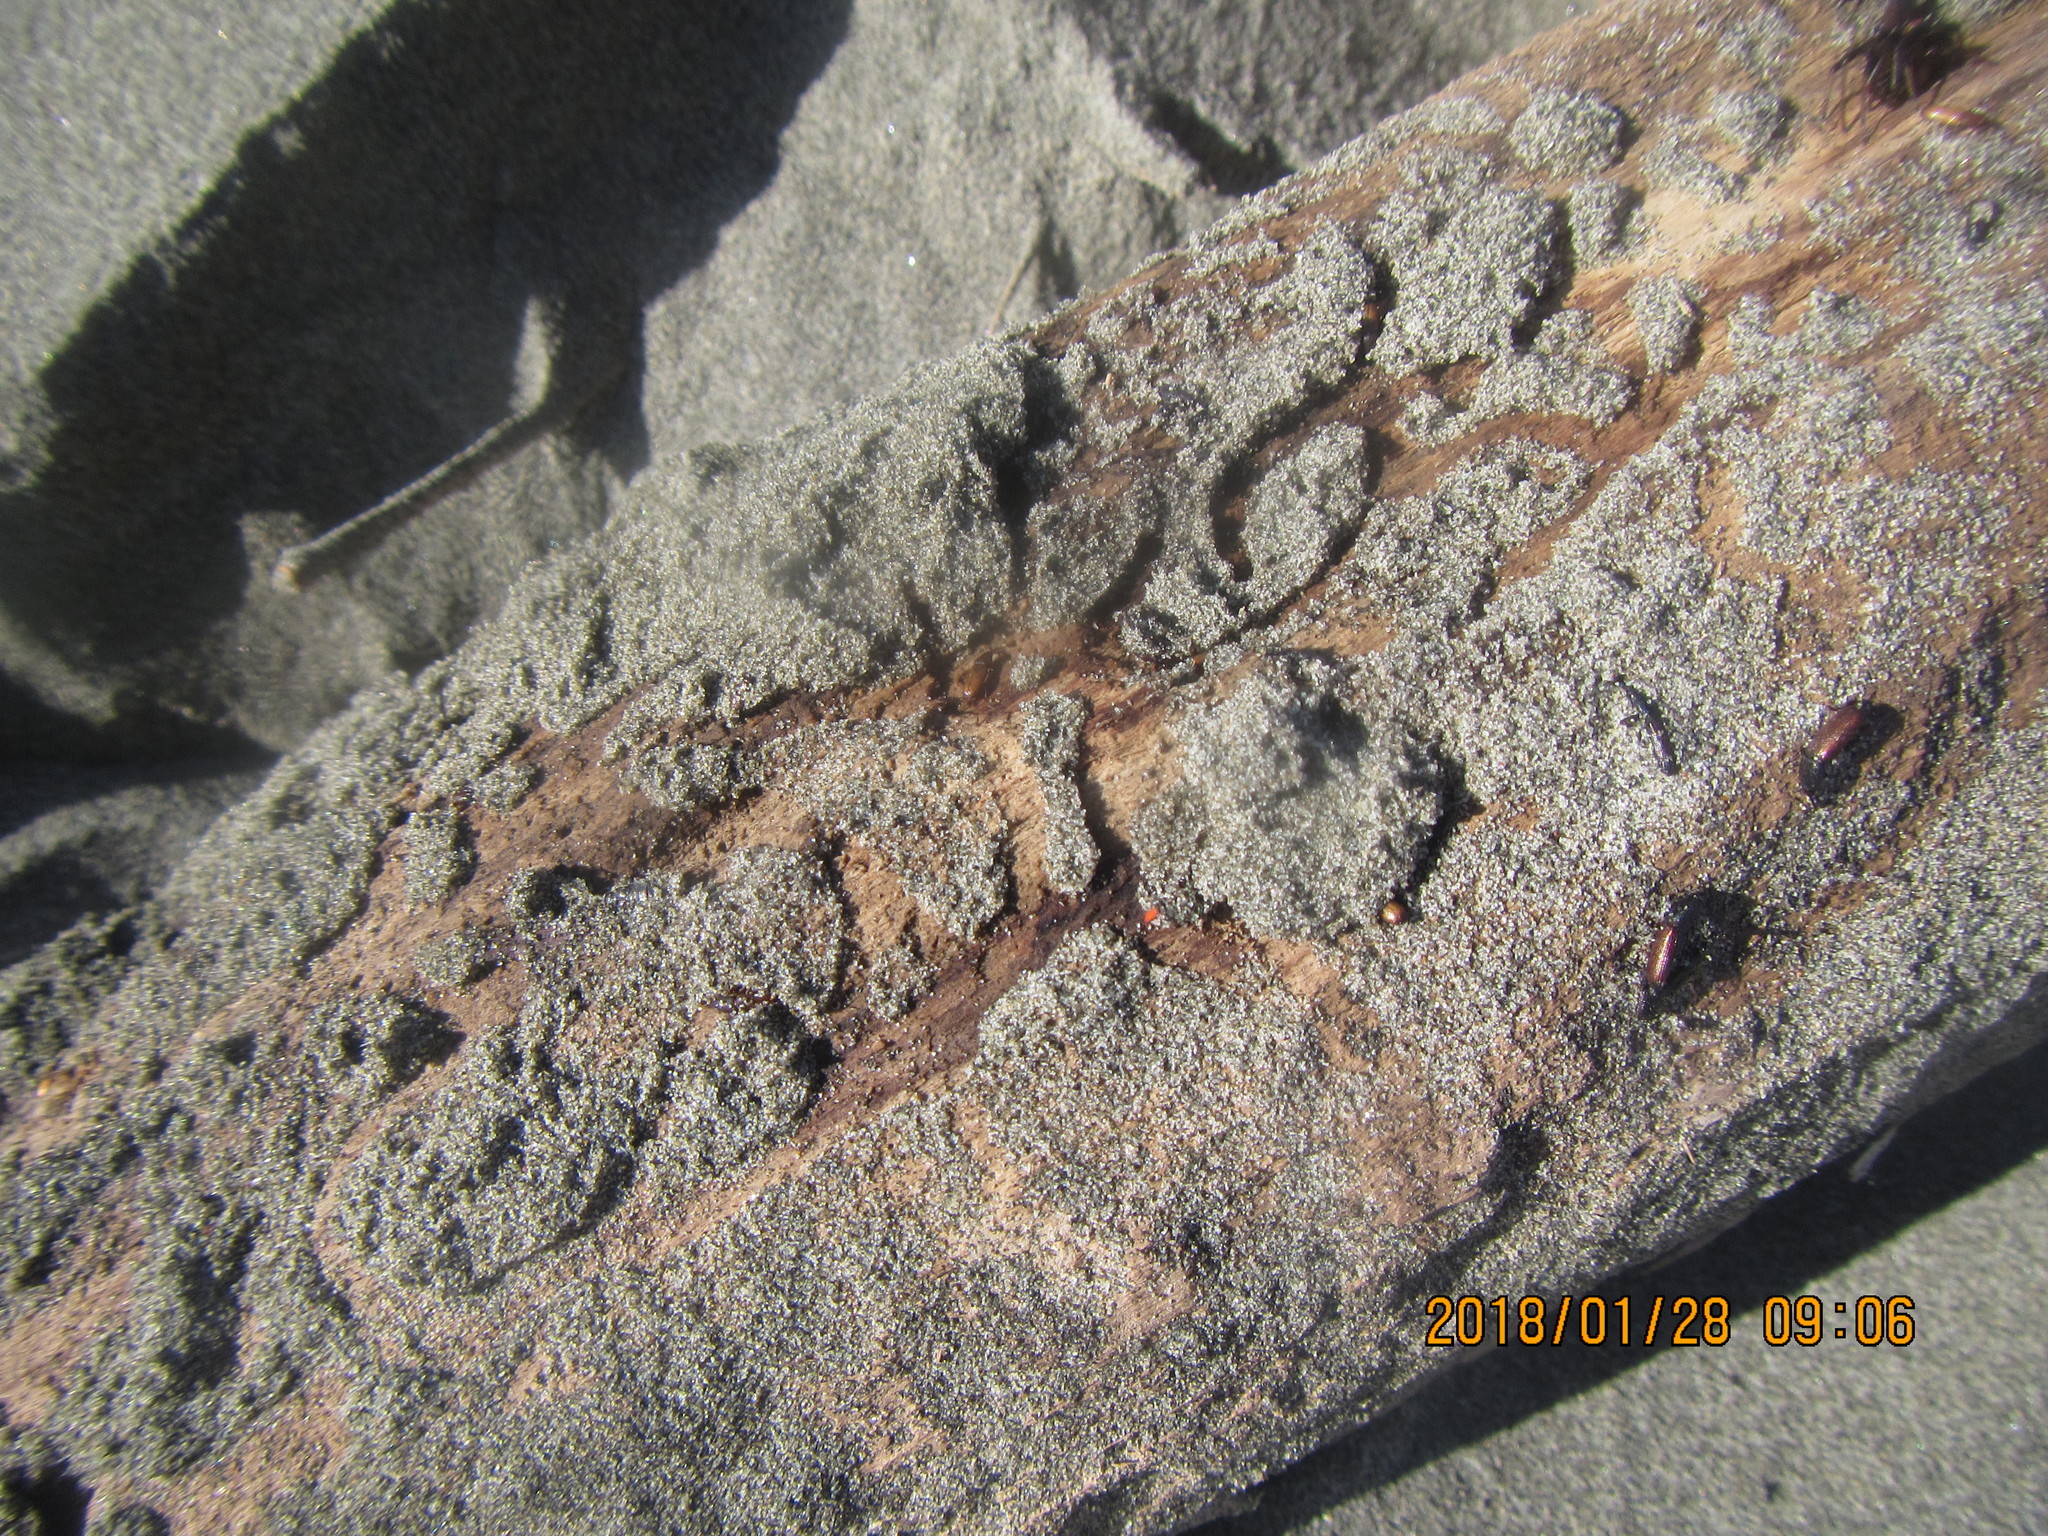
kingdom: Animalia
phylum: Arthropoda
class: Insecta
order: Coleoptera
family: Curculionidae
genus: Mesites
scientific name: Mesites pallidipennis
